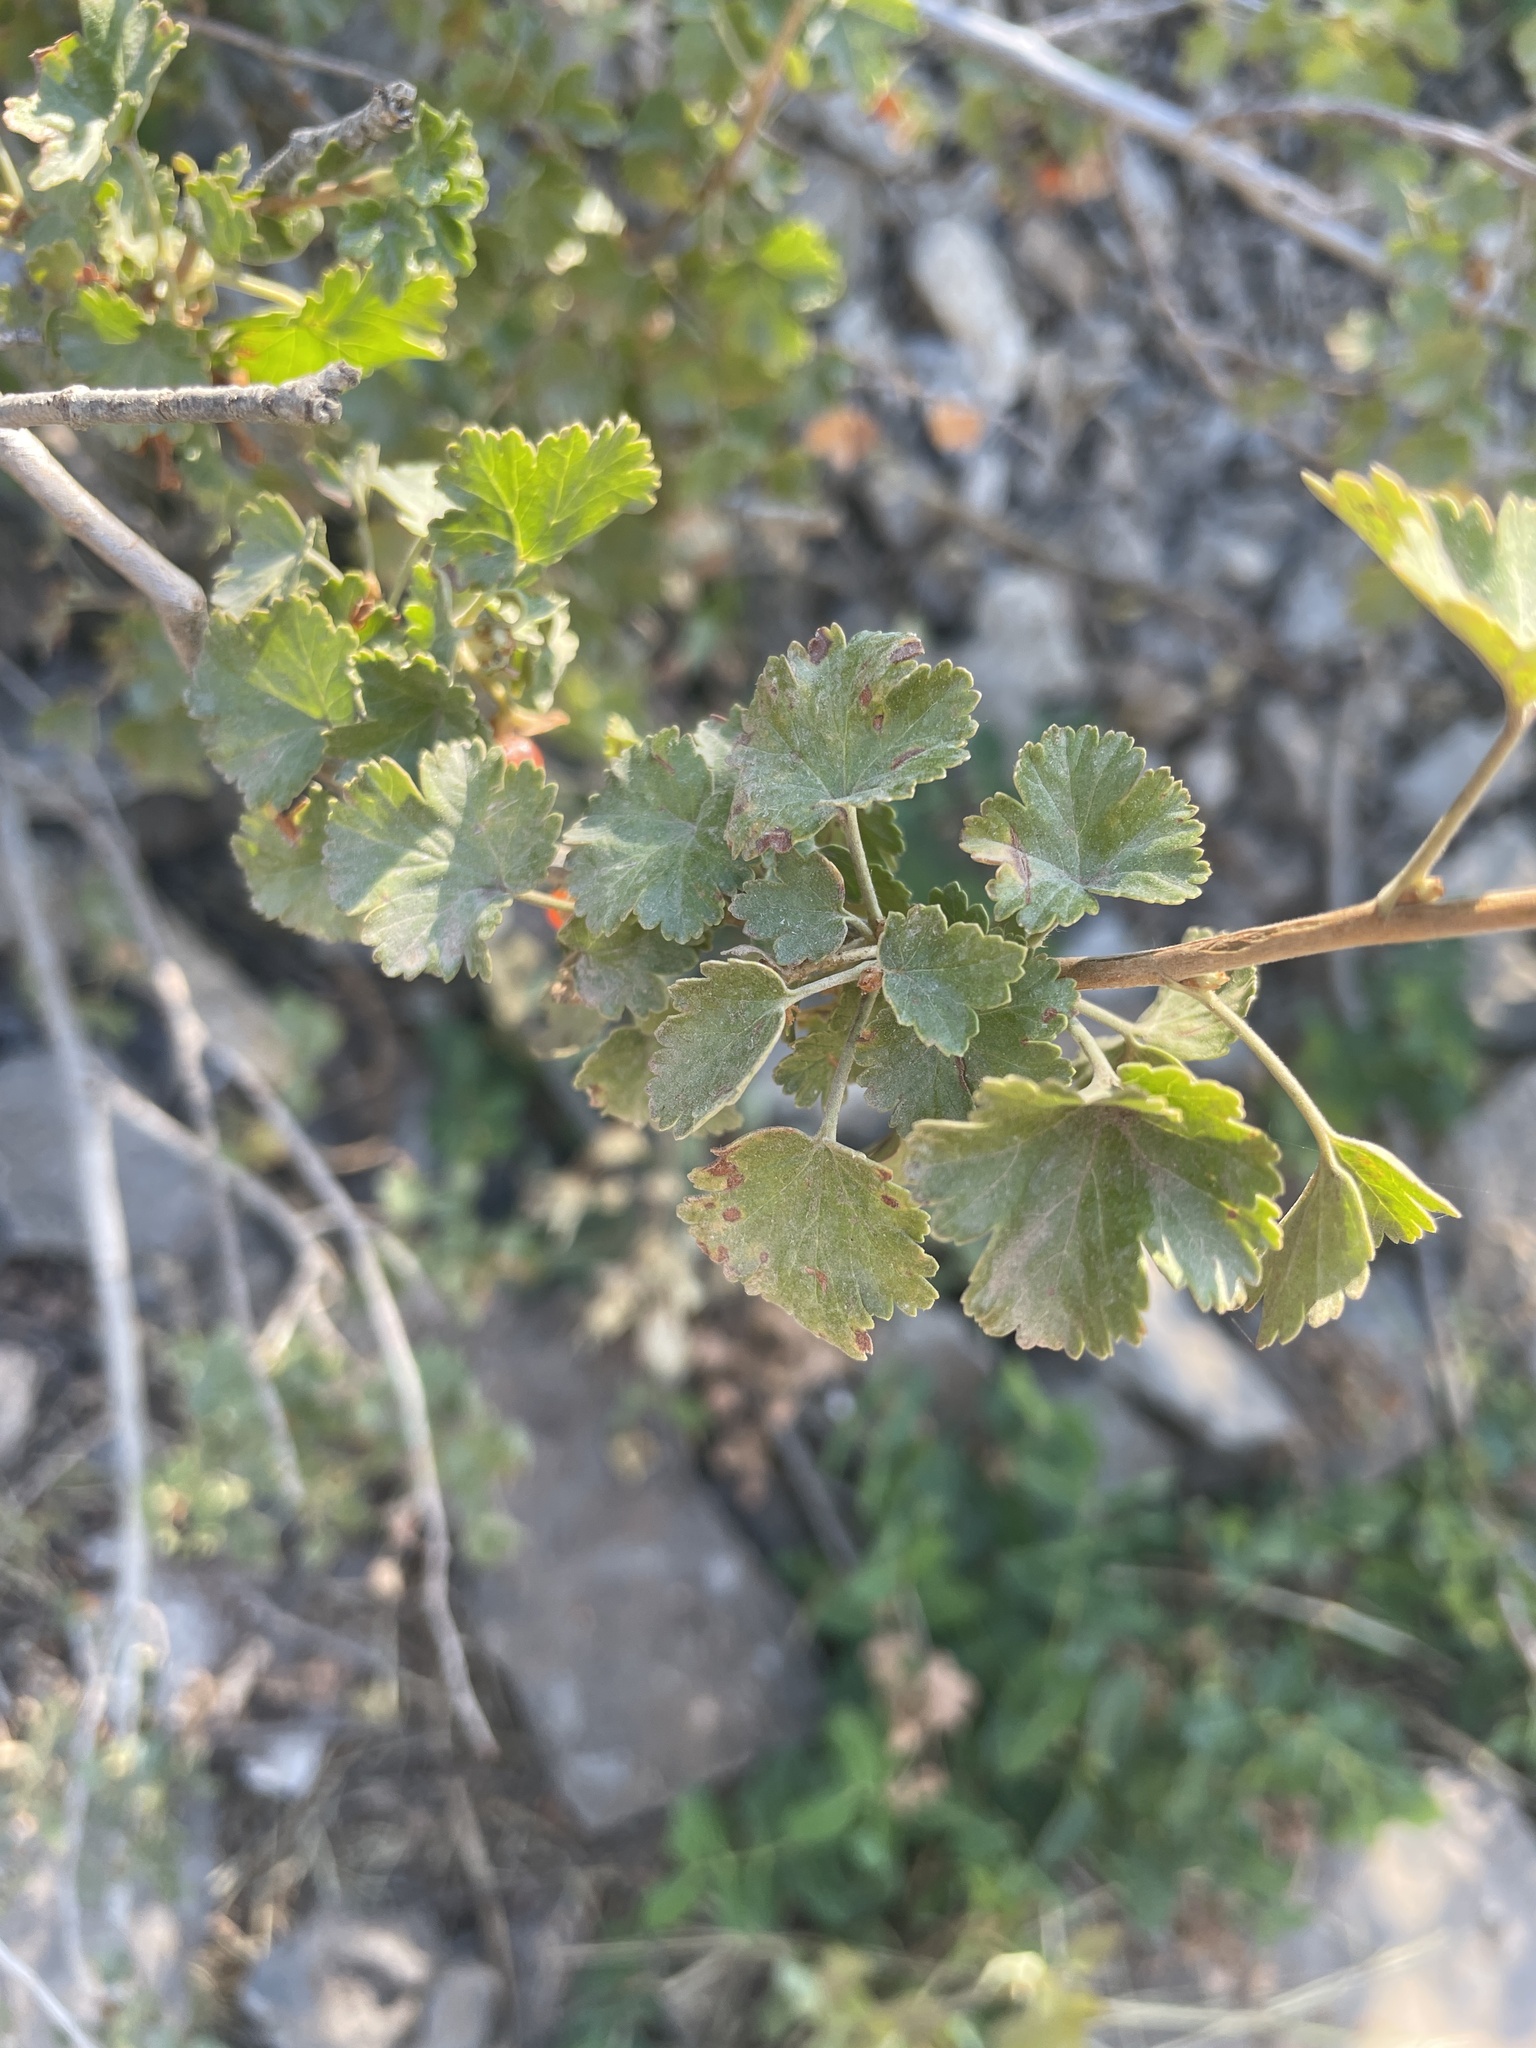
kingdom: Plantae
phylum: Tracheophyta
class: Magnoliopsida
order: Saxifragales
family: Grossulariaceae
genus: Ribes
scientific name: Ribes cereum
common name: Wax currant
